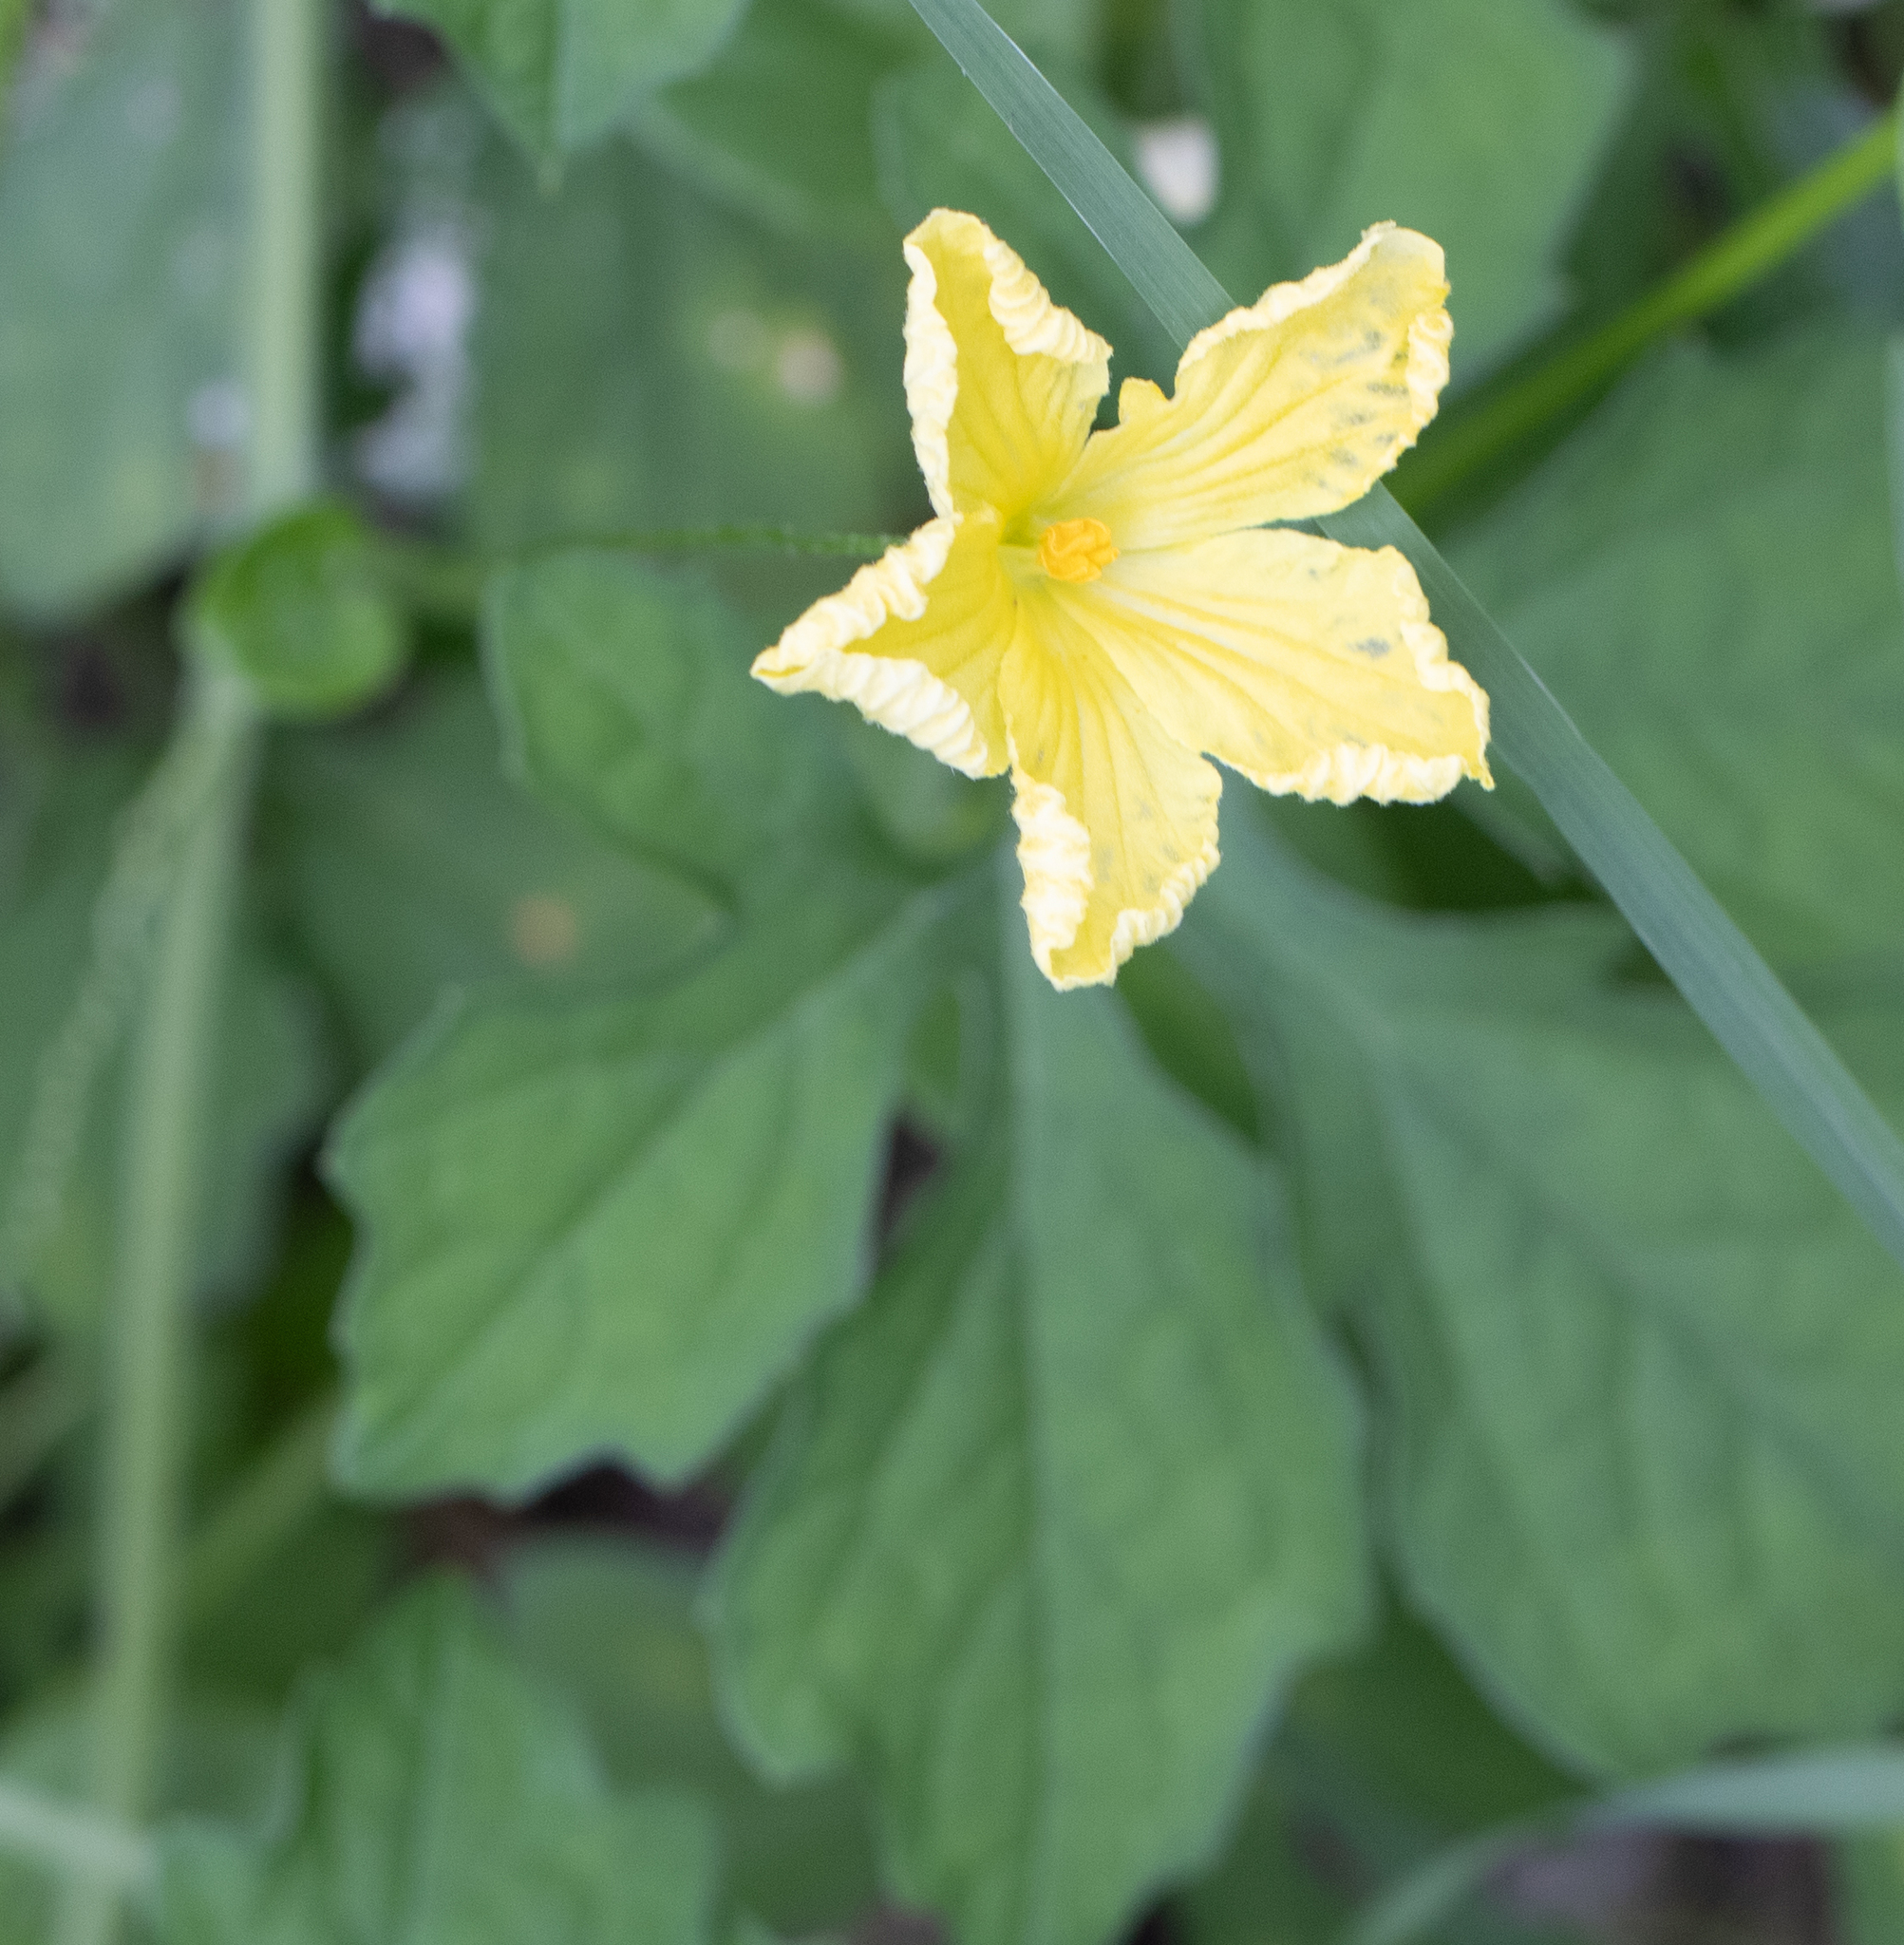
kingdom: Plantae
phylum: Tracheophyta
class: Magnoliopsida
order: Cucurbitales
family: Cucurbitaceae
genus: Momordica
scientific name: Momordica charantia
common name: Balsampear
